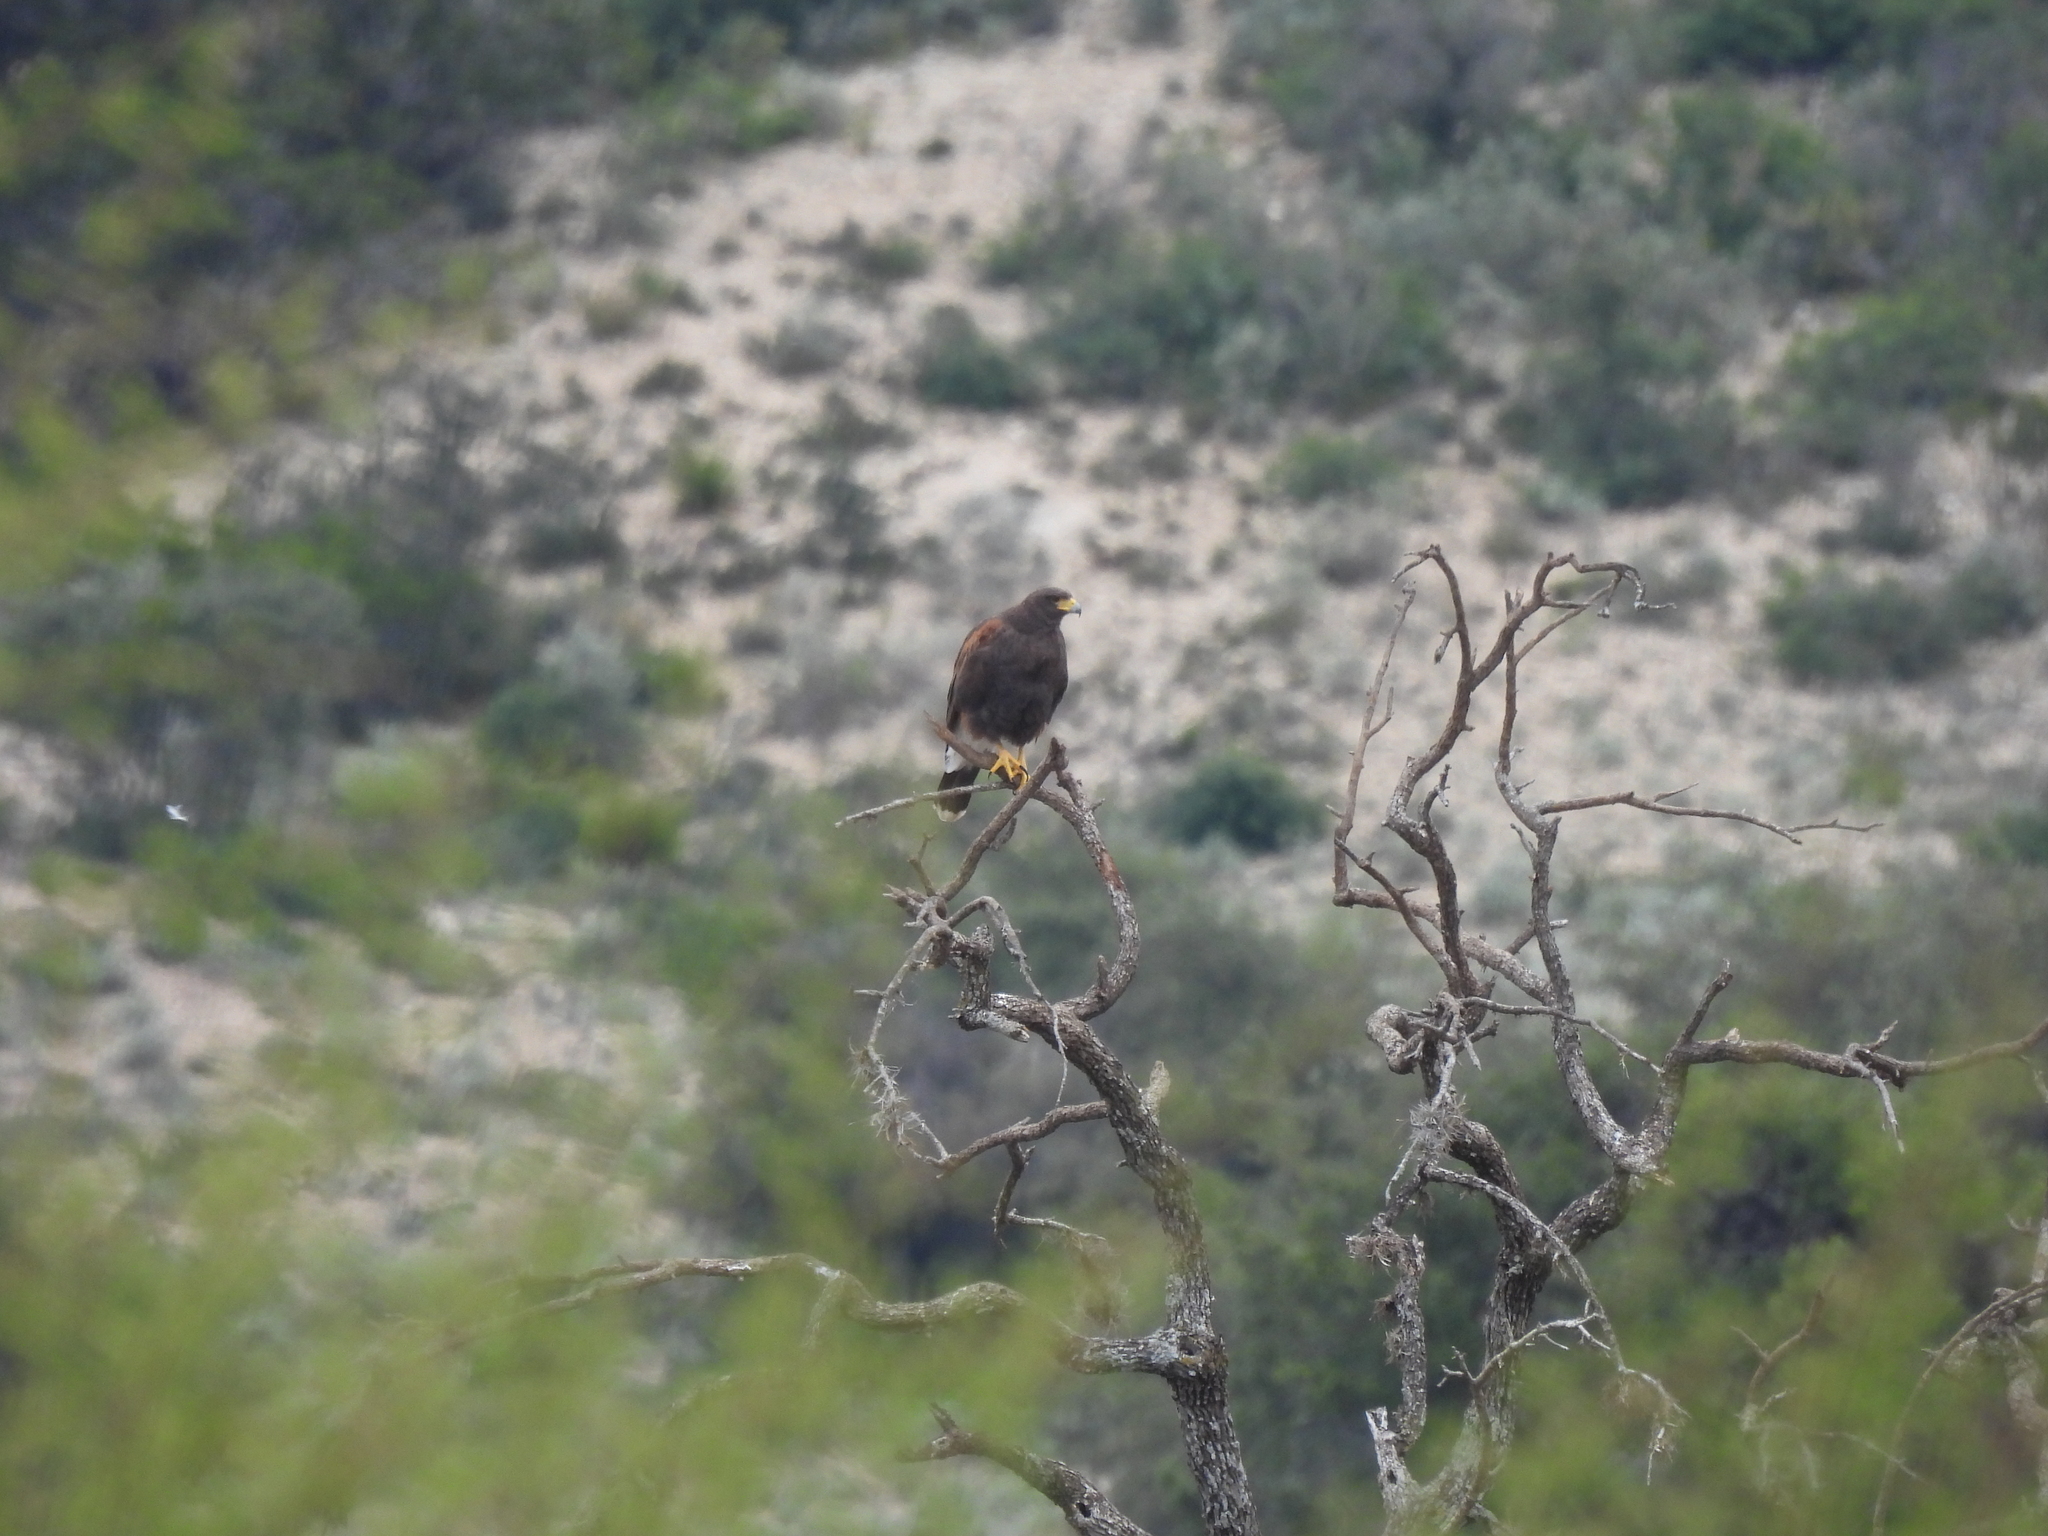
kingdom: Animalia
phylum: Chordata
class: Aves
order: Accipitriformes
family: Accipitridae
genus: Parabuteo
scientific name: Parabuteo unicinctus
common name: Harris's hawk
